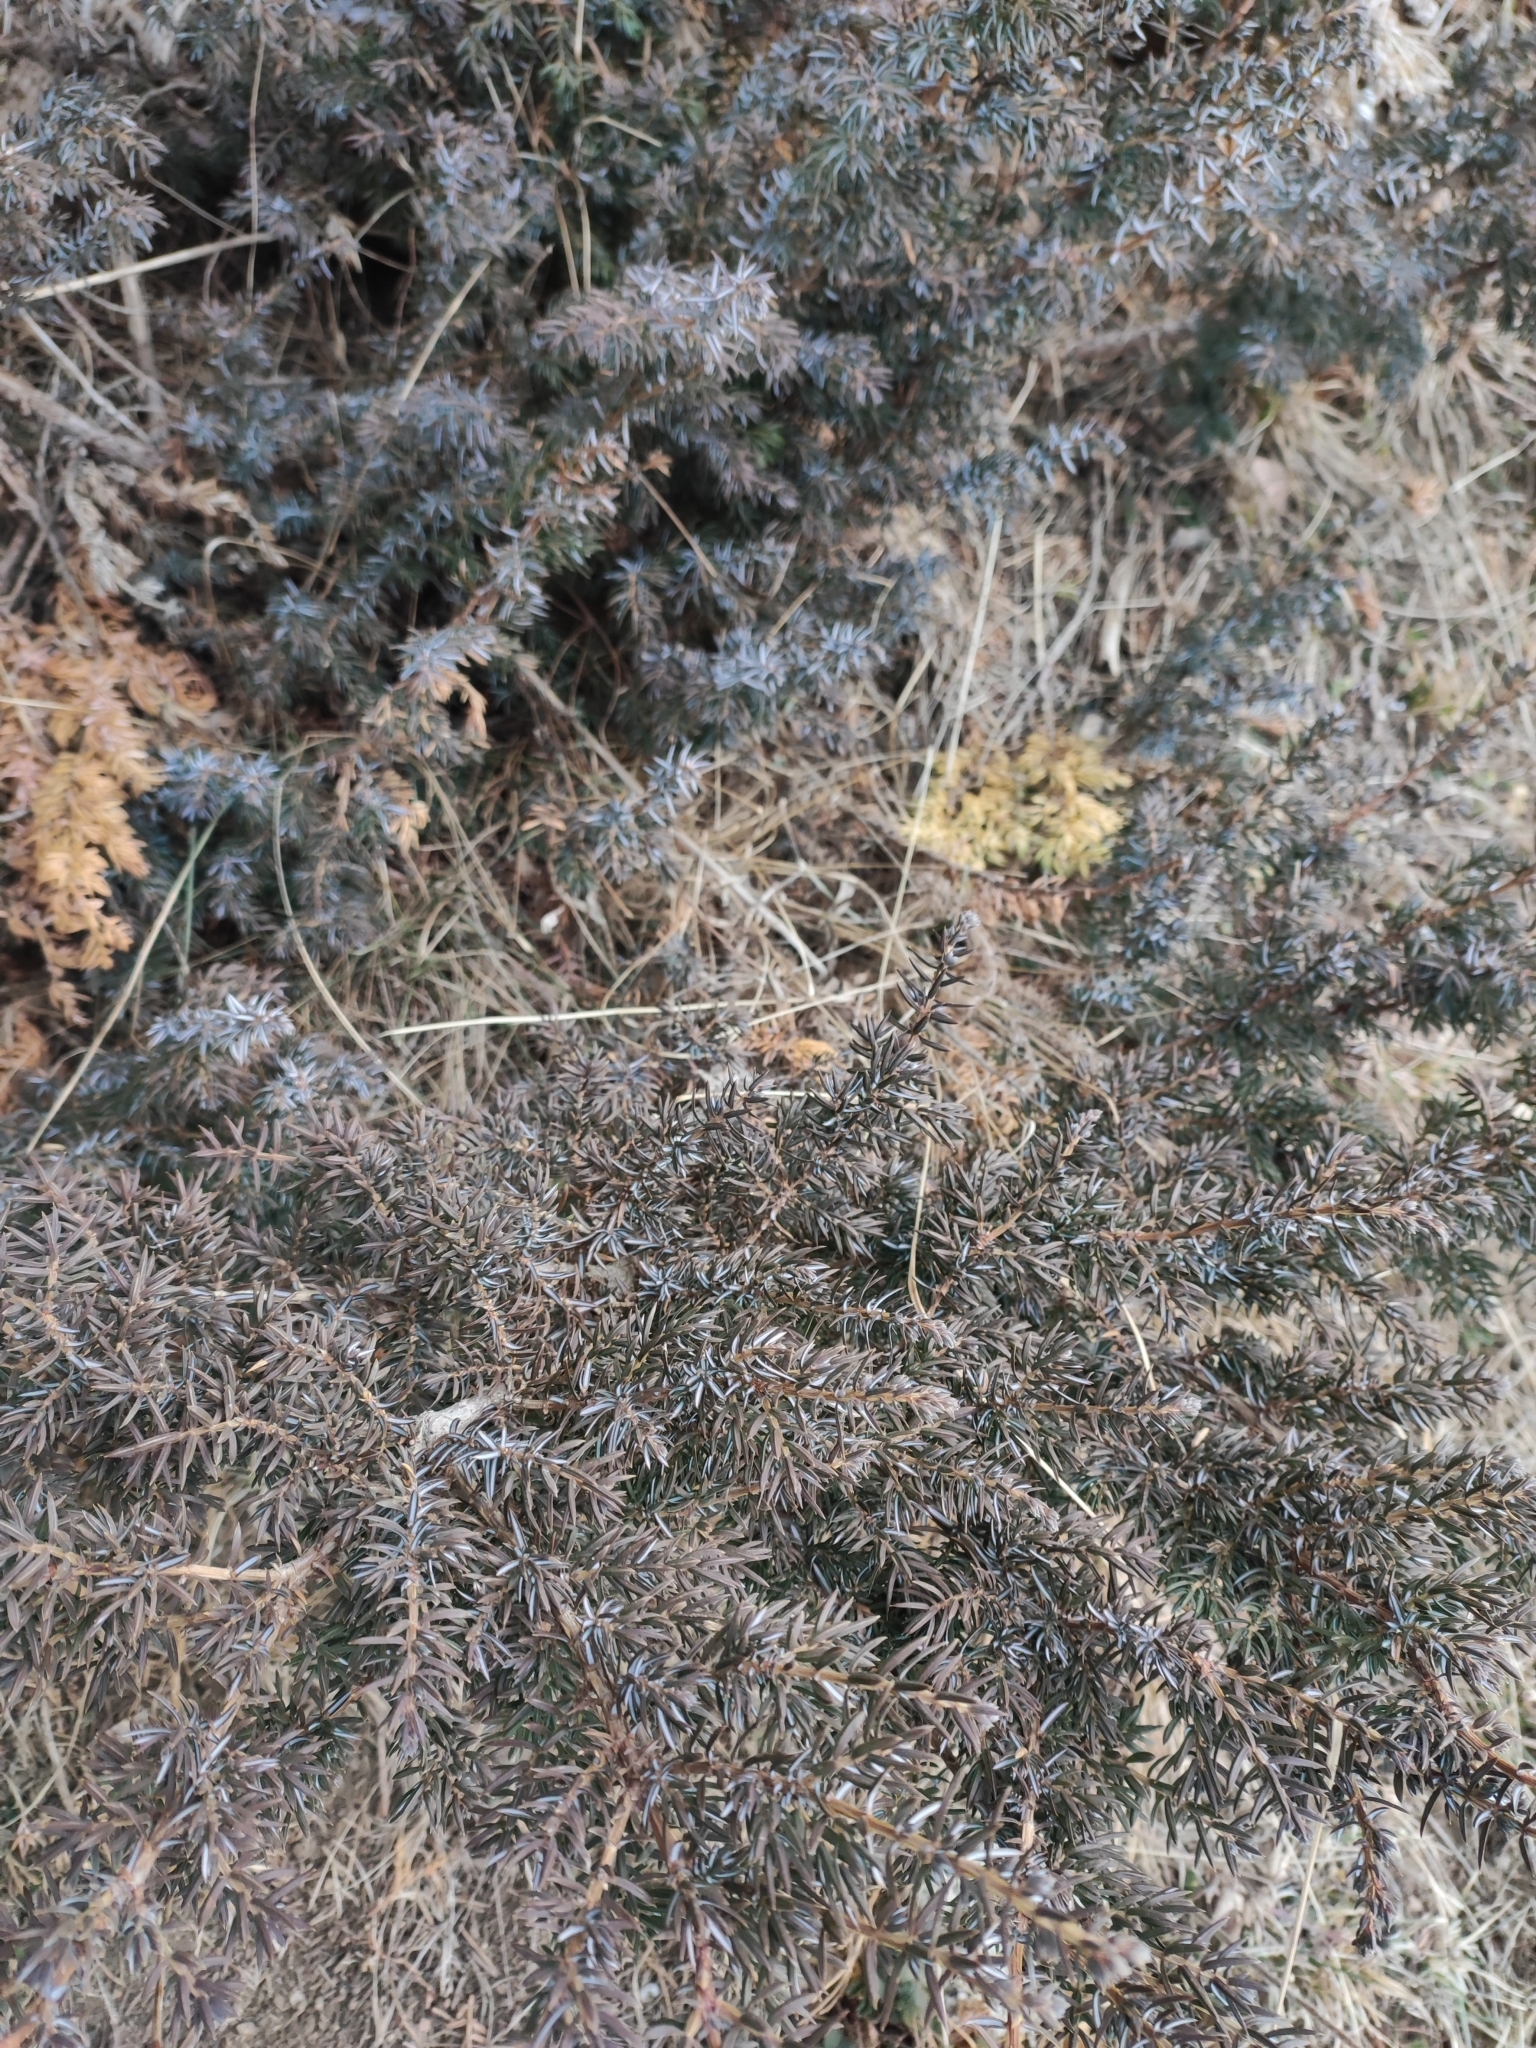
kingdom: Plantae
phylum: Tracheophyta
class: Pinopsida
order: Pinales
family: Cupressaceae
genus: Juniperus
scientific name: Juniperus communis
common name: Common juniper
